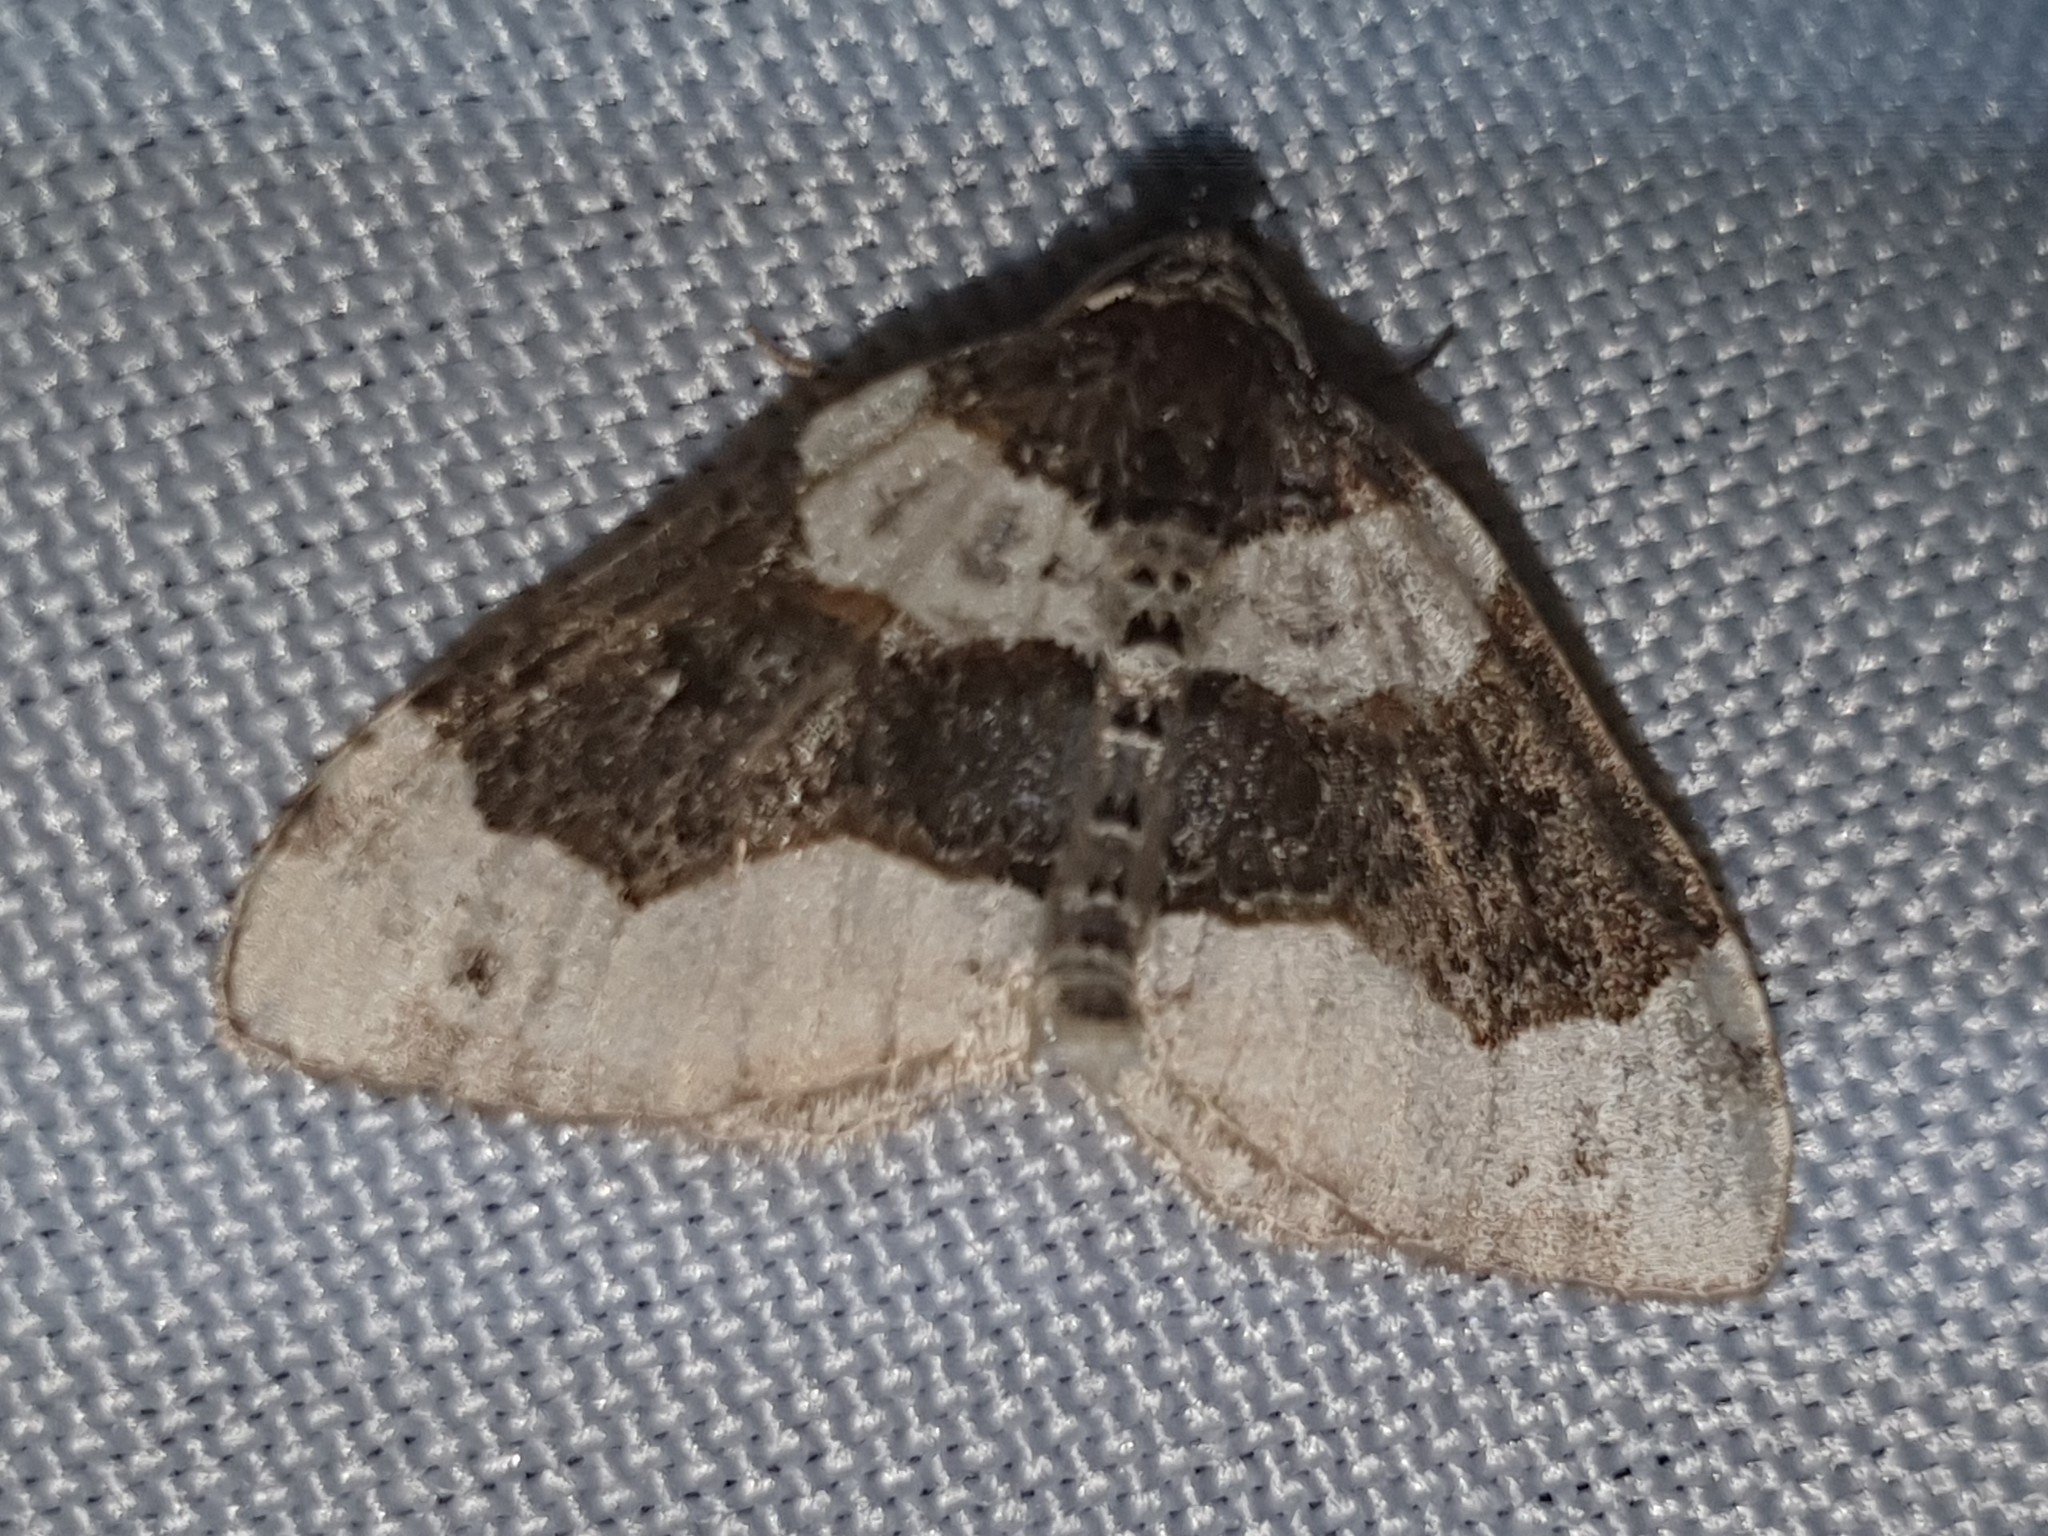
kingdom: Animalia
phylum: Arthropoda
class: Insecta
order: Lepidoptera
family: Geometridae
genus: Cosmorhoe
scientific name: Cosmorhoe ocellata
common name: Purple bar
